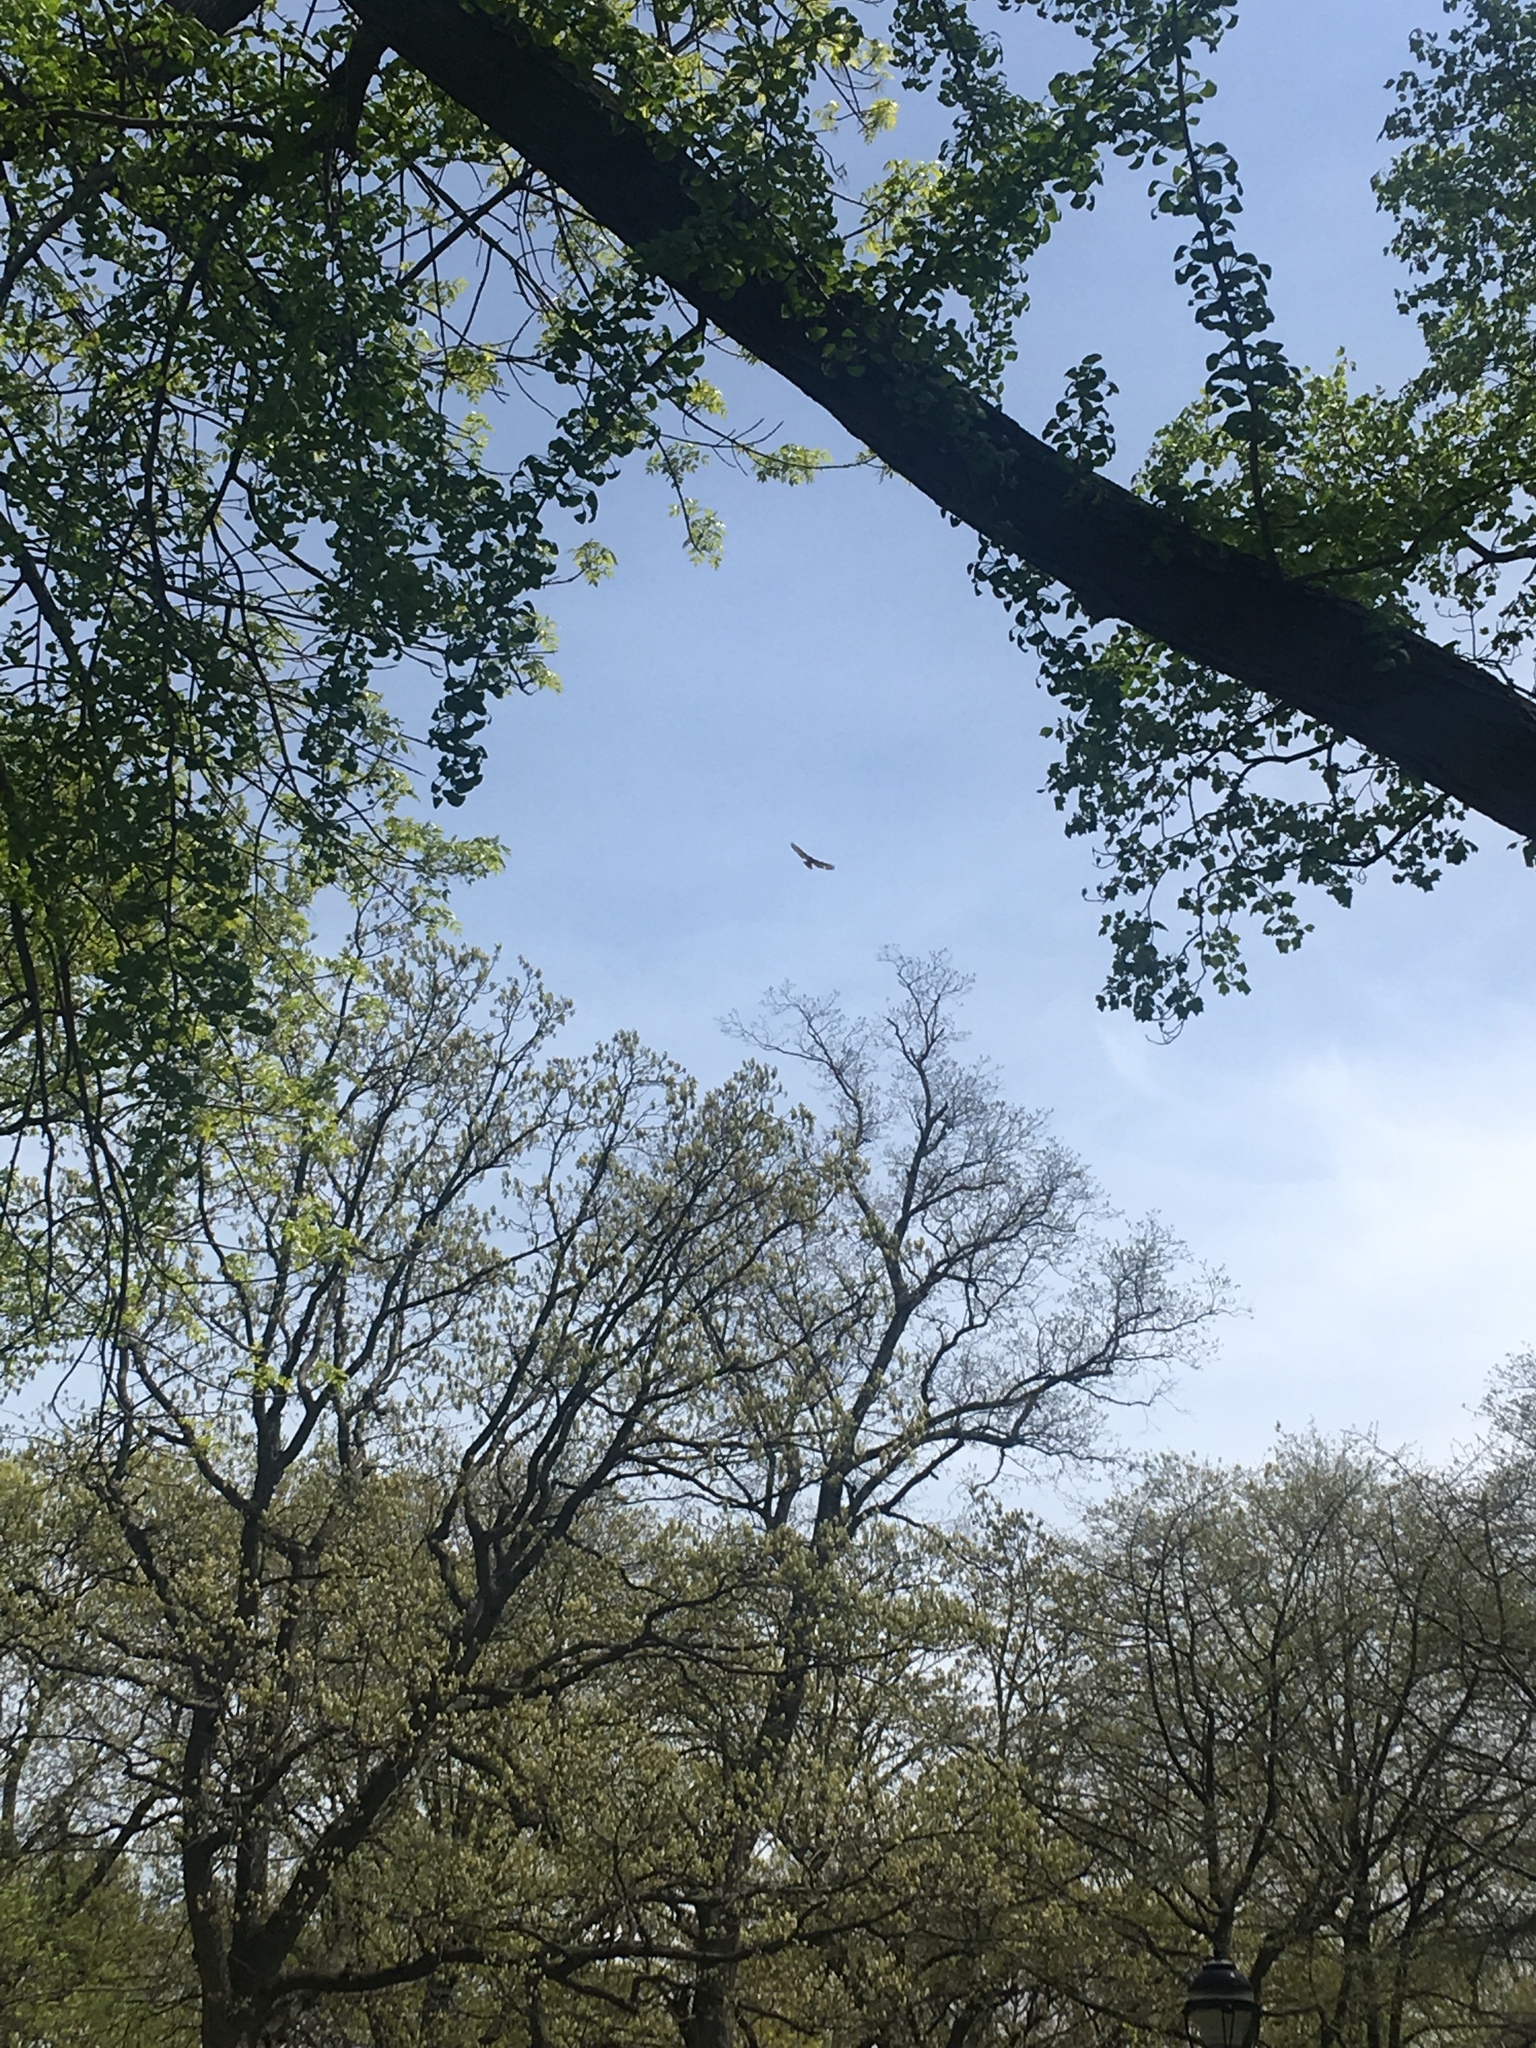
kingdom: Animalia
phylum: Chordata
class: Aves
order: Accipitriformes
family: Accipitridae
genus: Buteo
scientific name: Buteo jamaicensis
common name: Red-tailed hawk
